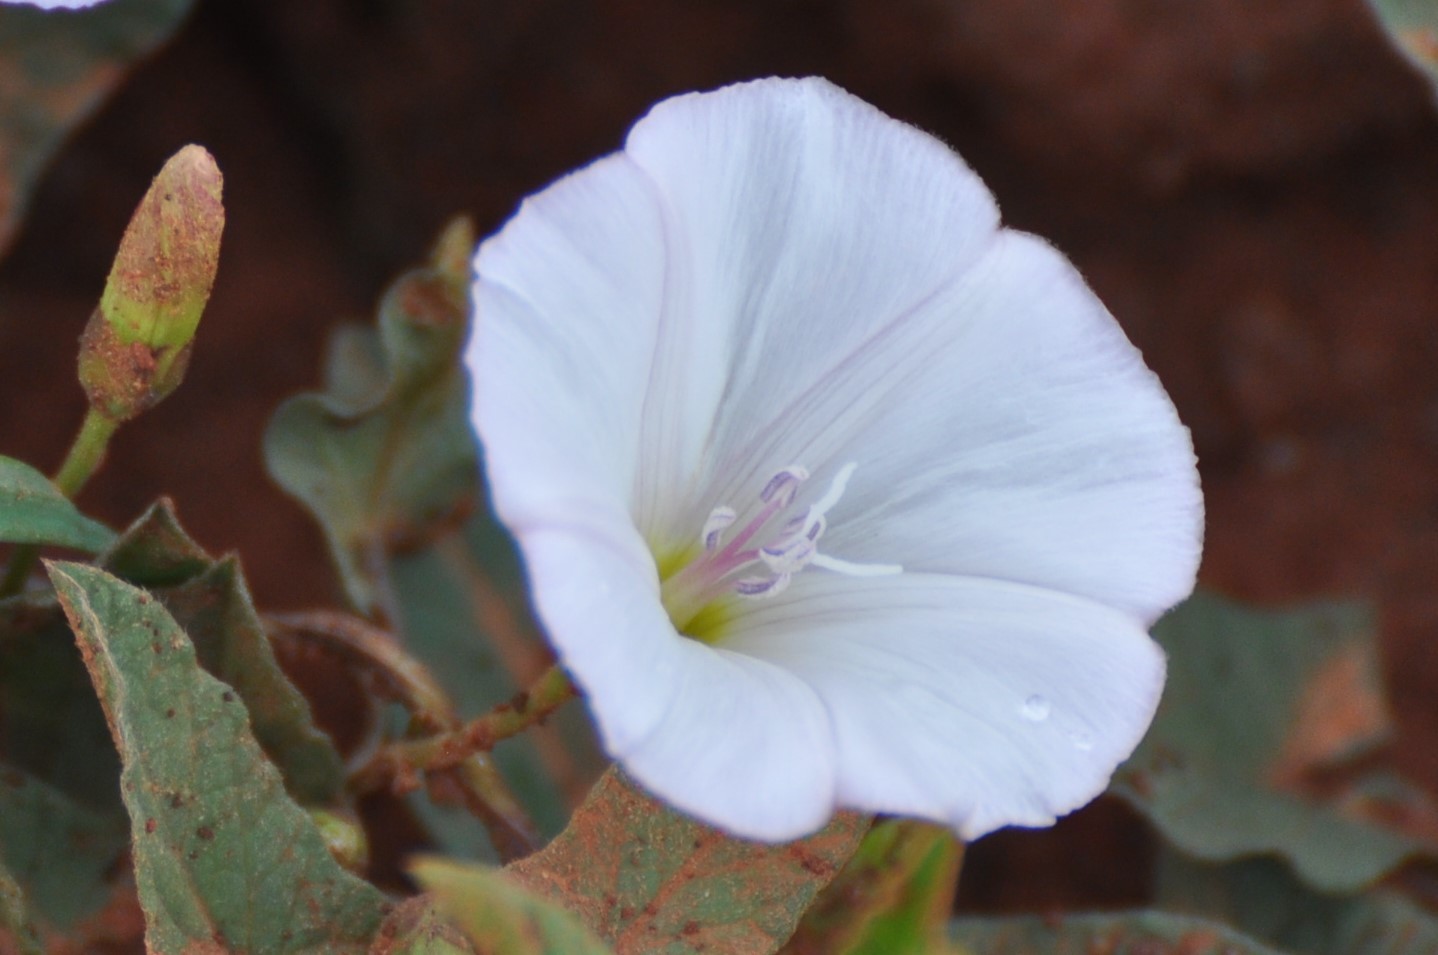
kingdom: Plantae
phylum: Tracheophyta
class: Magnoliopsida
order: Solanales
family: Convolvulaceae
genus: Convolvulus
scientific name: Convolvulus arvensis
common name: Field bindweed
